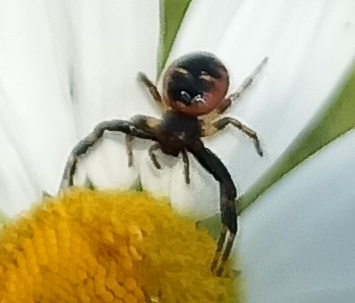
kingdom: Animalia
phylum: Arthropoda
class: Arachnida
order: Araneae
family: Thomisidae
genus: Synema
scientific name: Synema globosum
